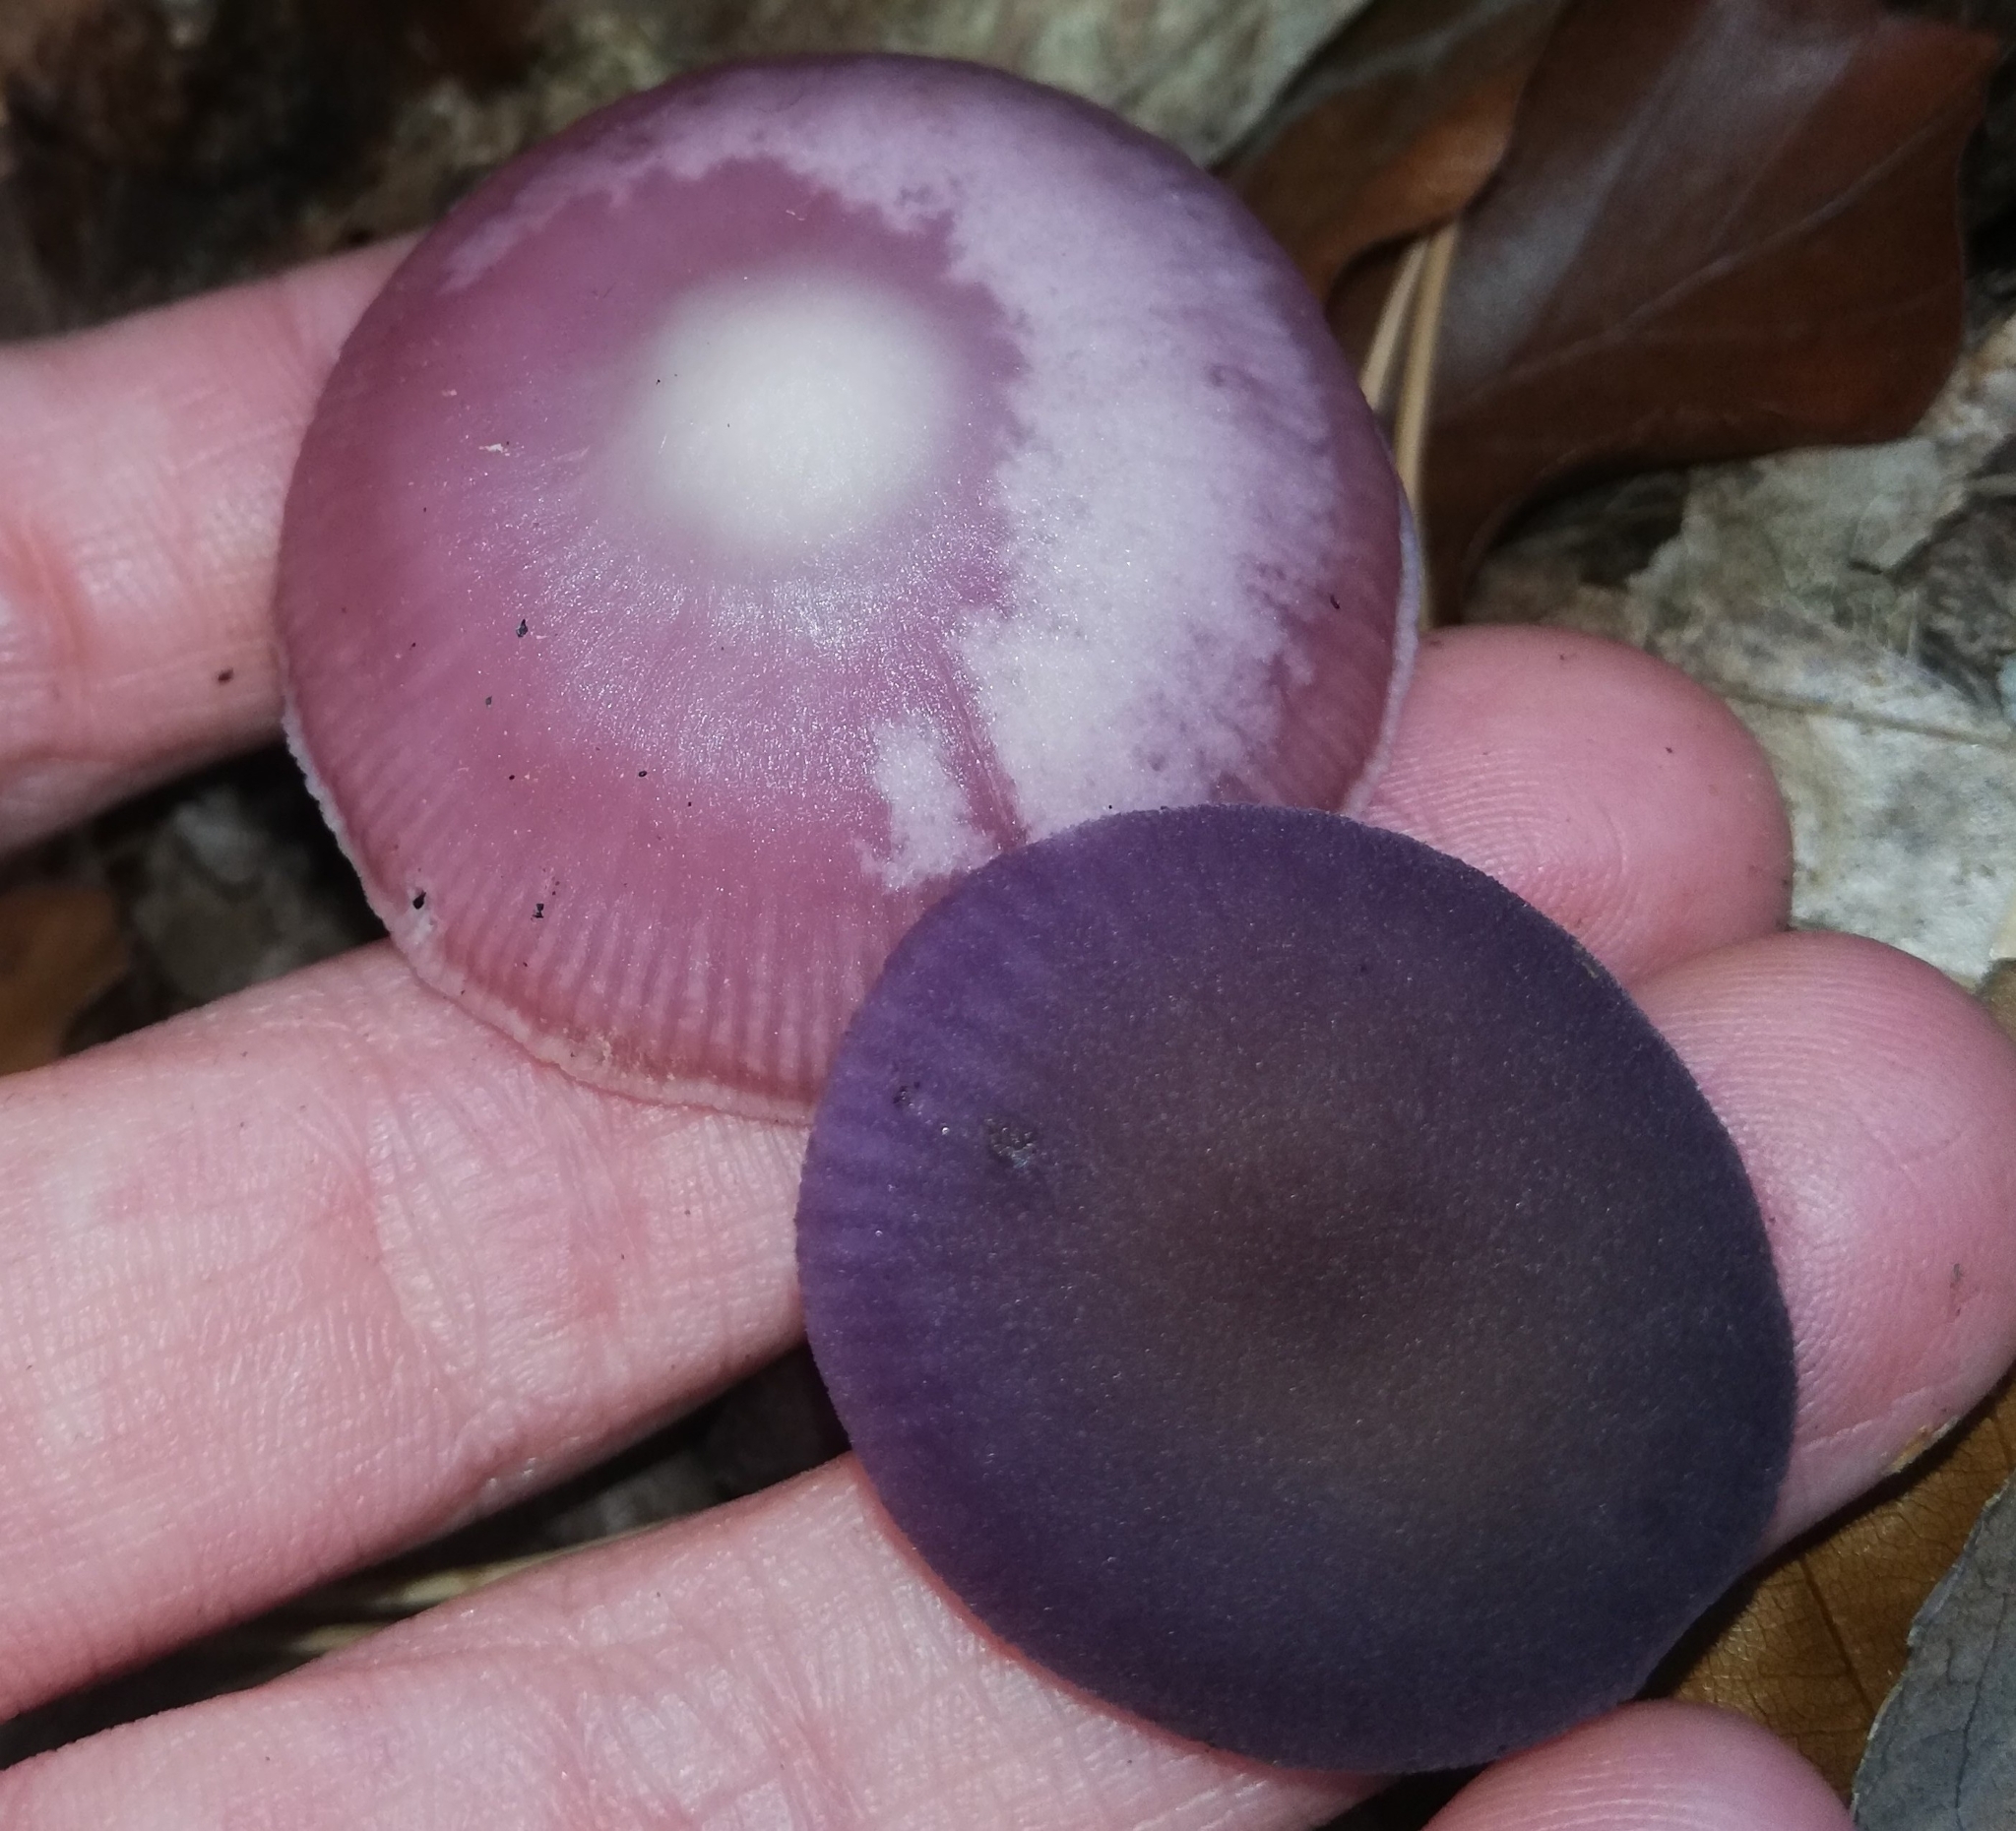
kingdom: Fungi
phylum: Basidiomycota
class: Agaricomycetes
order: Agaricales
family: Mycenaceae
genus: Mycena
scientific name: Mycena rosea
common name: Rosy bonnet
